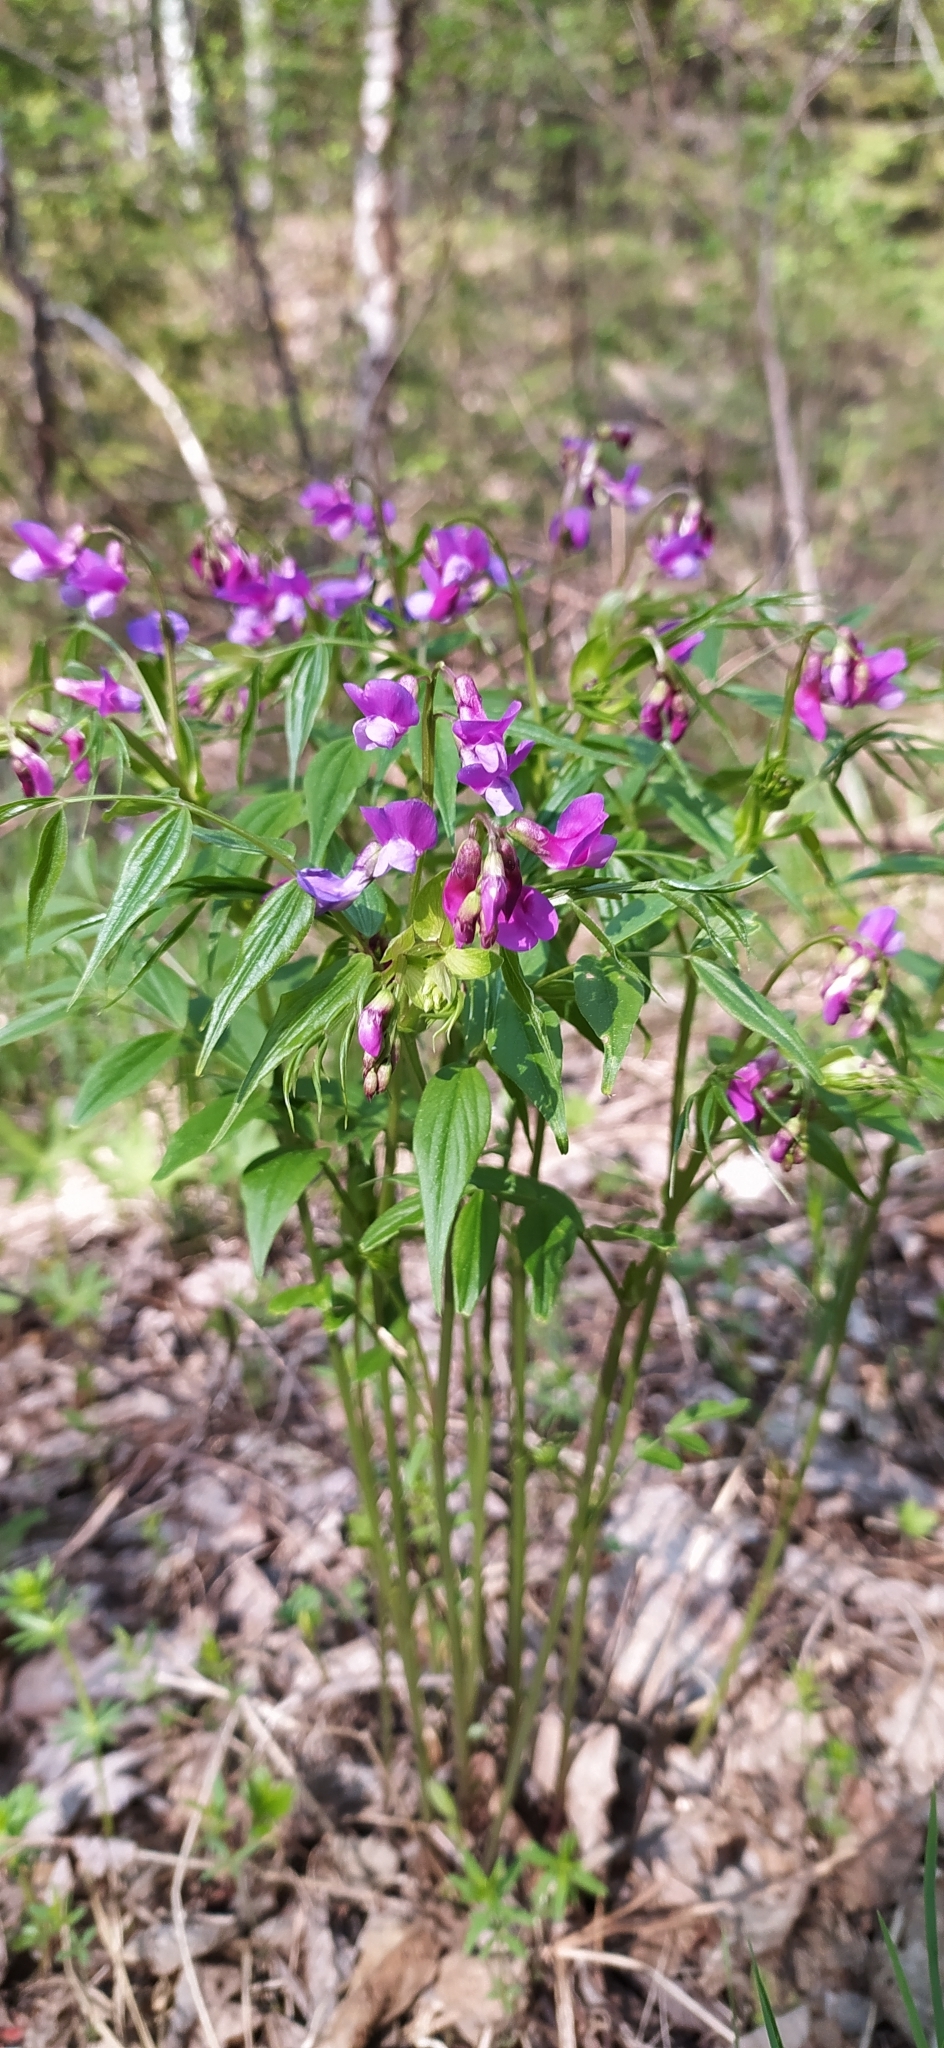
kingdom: Plantae
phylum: Tracheophyta
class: Magnoliopsida
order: Fabales
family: Fabaceae
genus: Lathyrus
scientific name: Lathyrus vernus
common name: Spring pea
